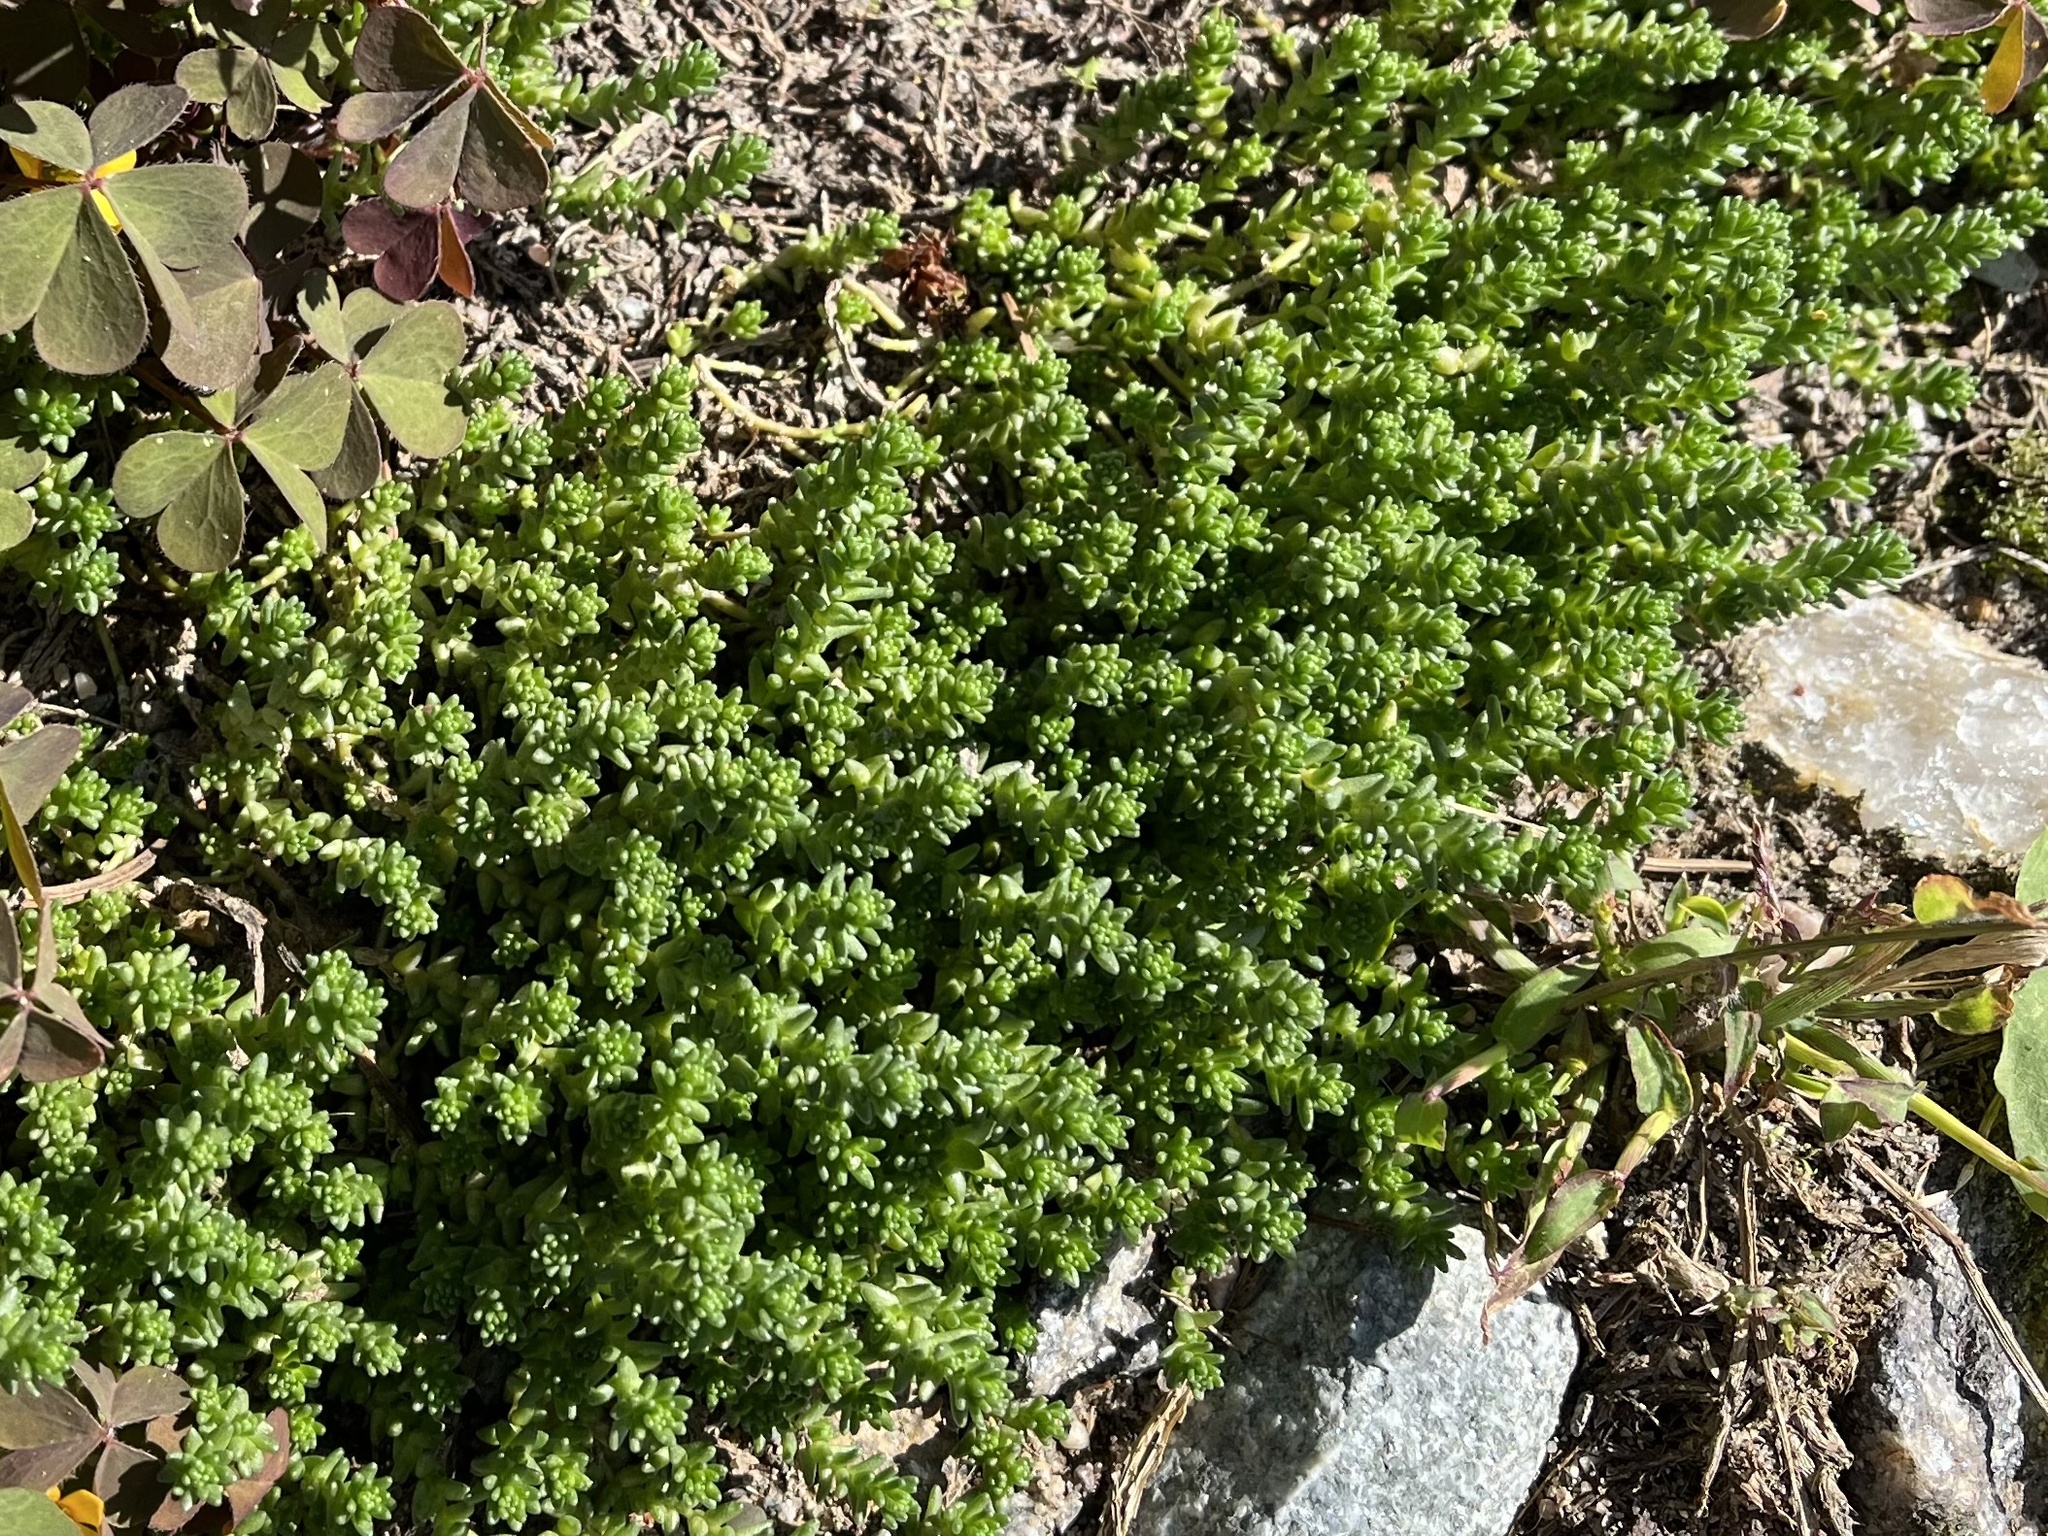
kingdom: Plantae
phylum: Tracheophyta
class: Magnoliopsida
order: Saxifragales
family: Crassulaceae
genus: Sedum
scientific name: Sedum acre
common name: Biting stonecrop
